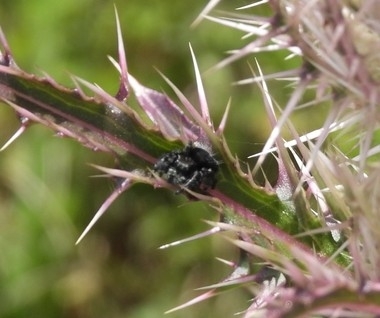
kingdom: Animalia
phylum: Arthropoda
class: Arachnida
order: Araneae
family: Salticidae
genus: Phidippus
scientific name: Phidippus audax
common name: Bold jumper
